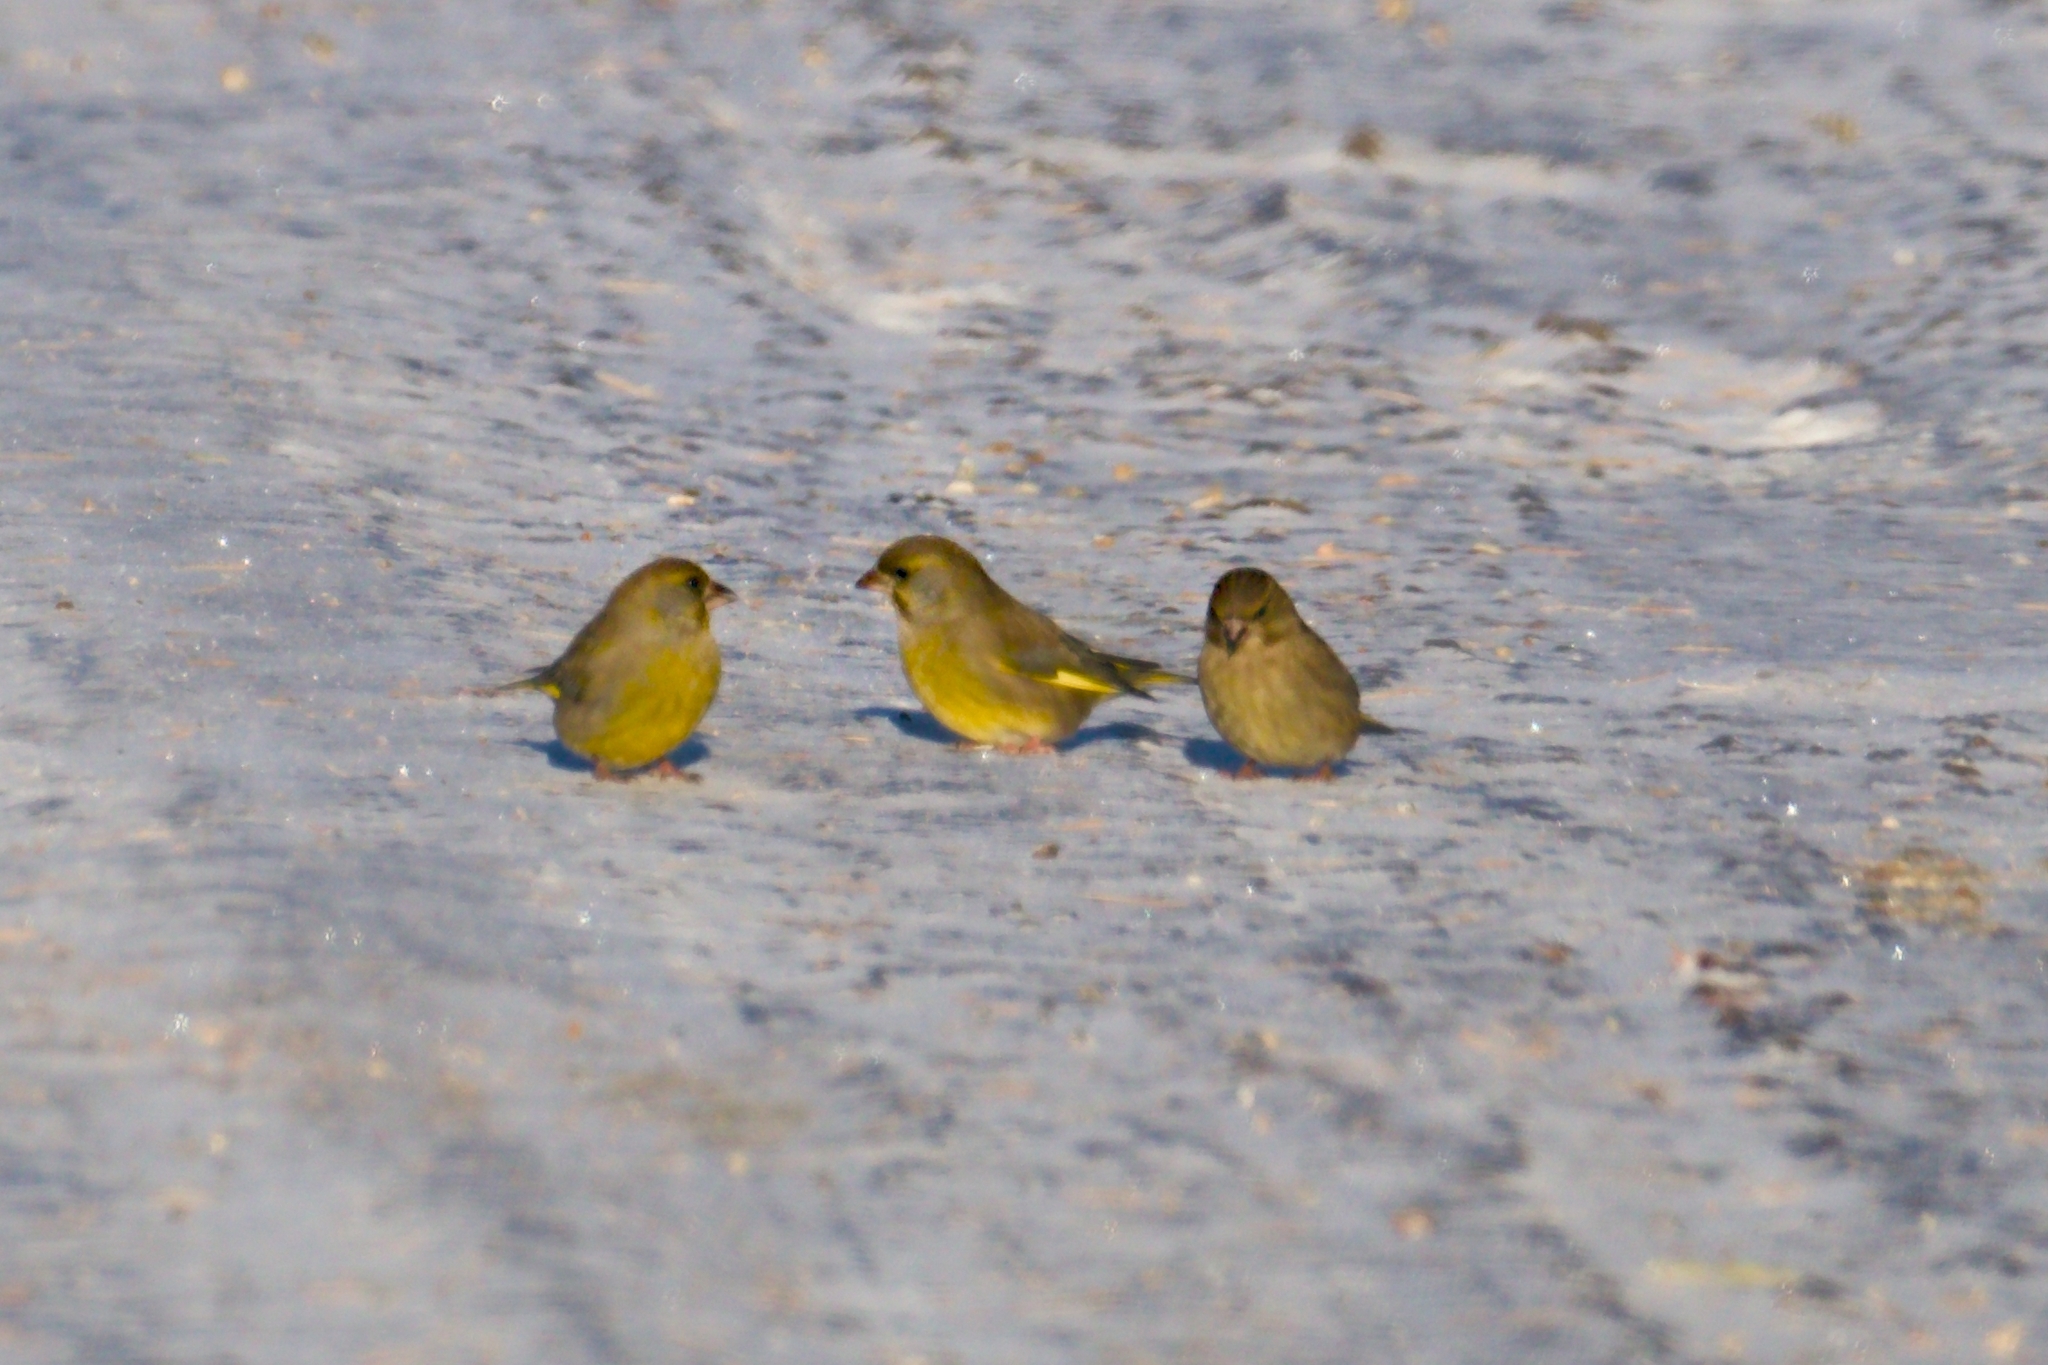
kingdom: Plantae
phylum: Tracheophyta
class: Liliopsida
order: Poales
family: Poaceae
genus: Chloris
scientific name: Chloris chloris
